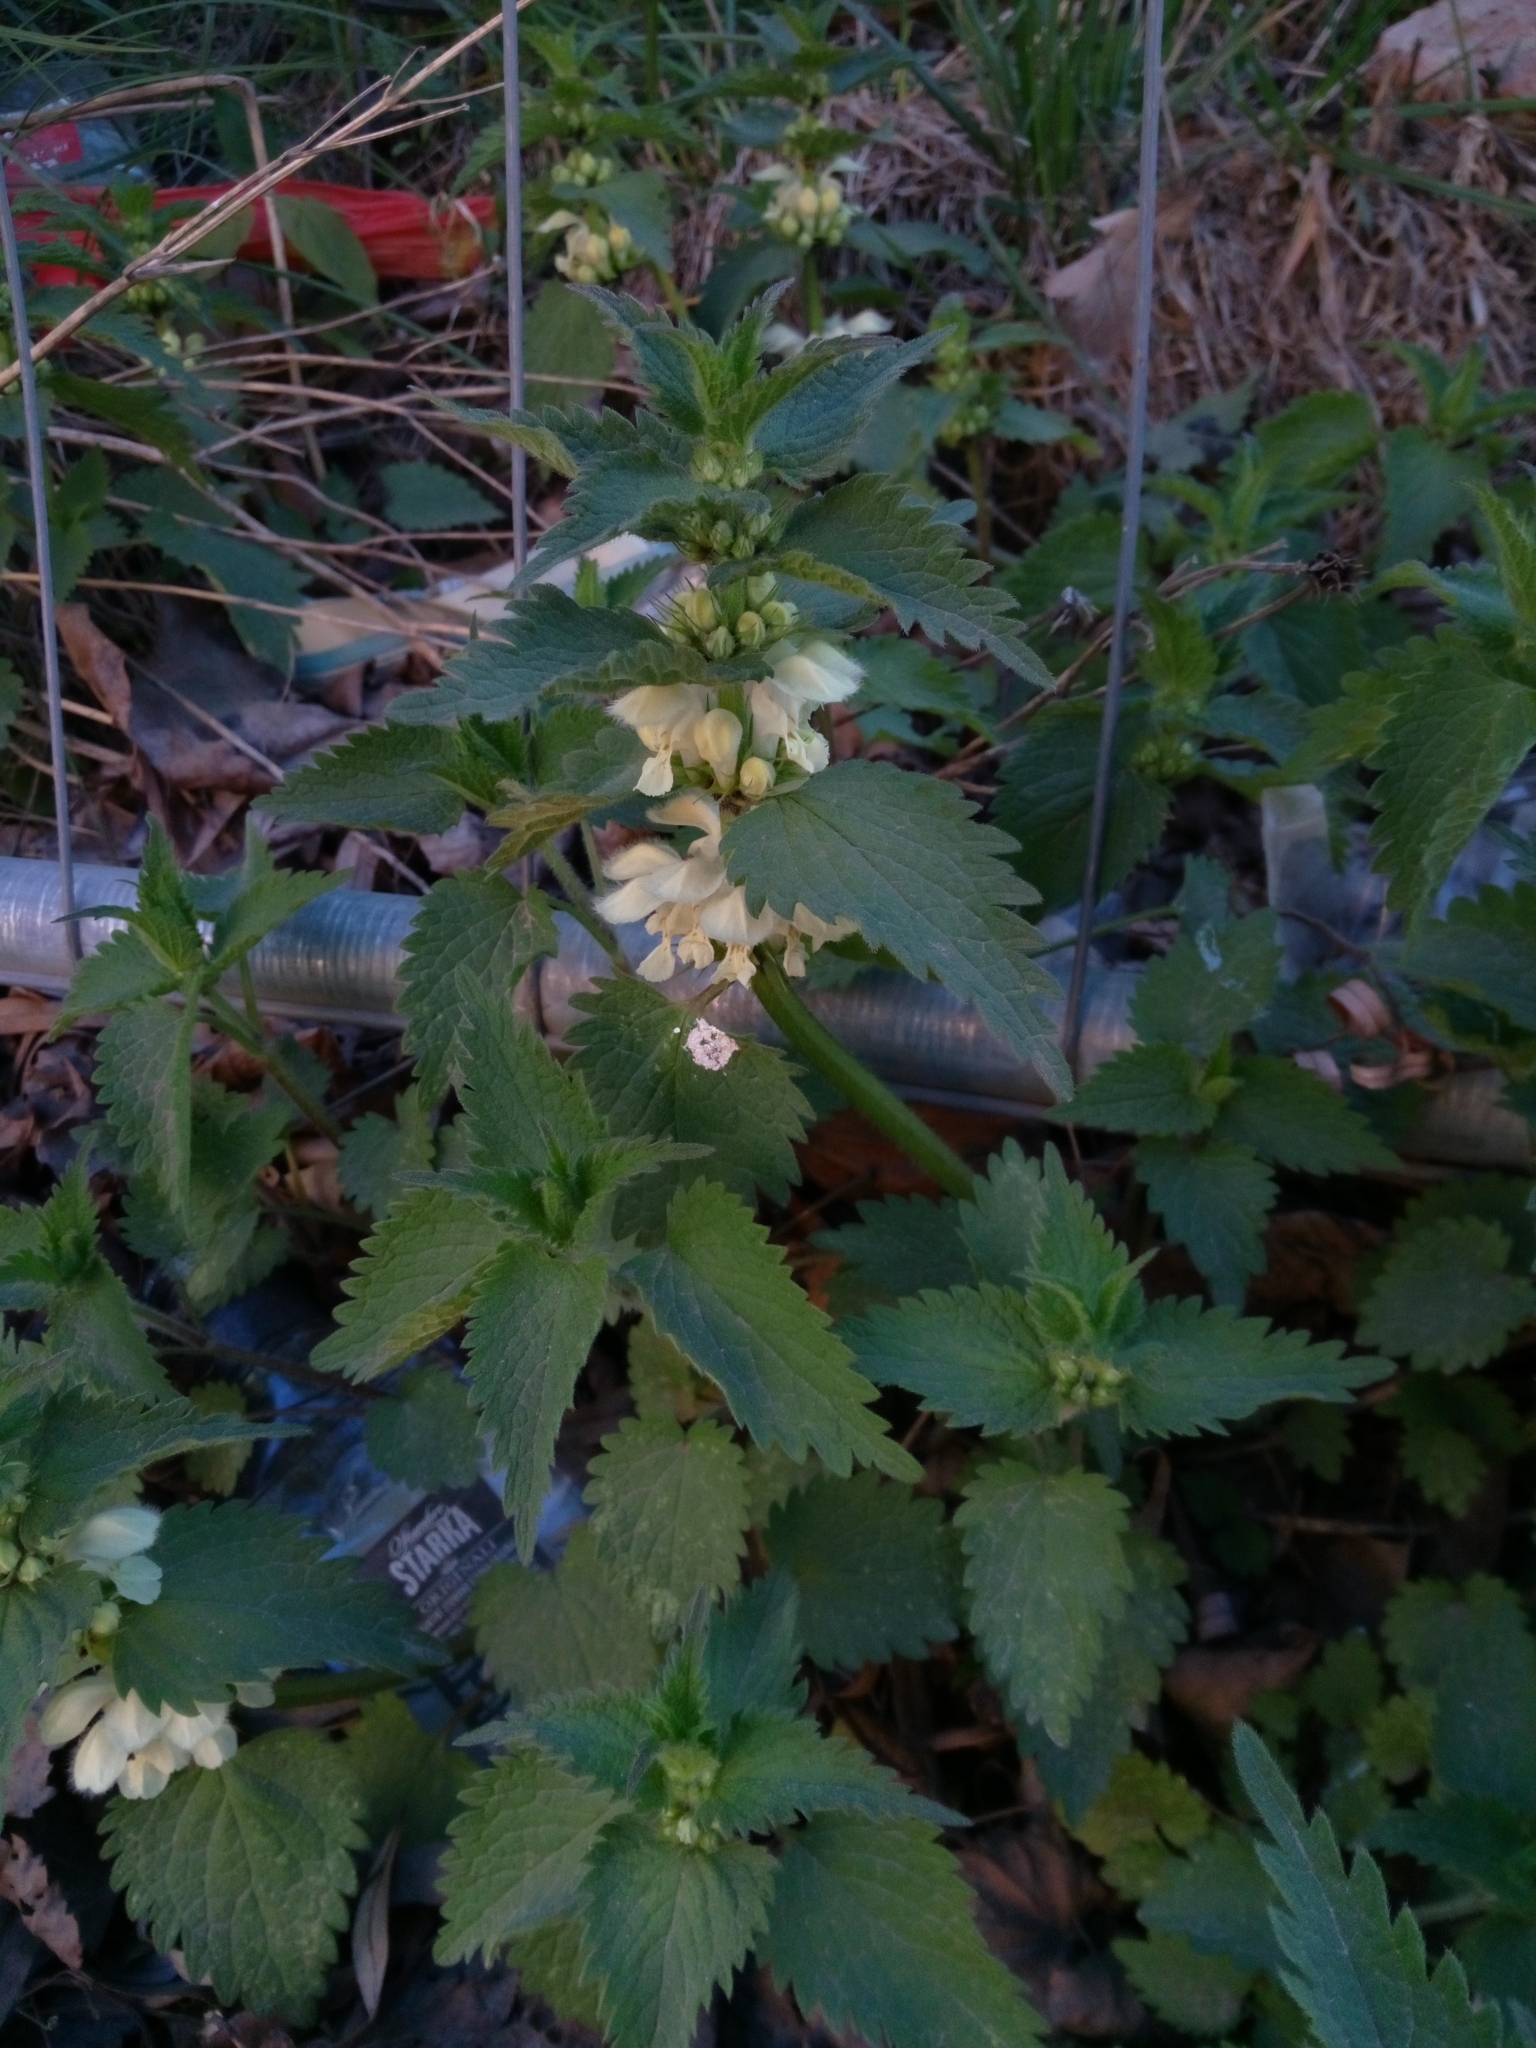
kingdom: Plantae
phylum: Tracheophyta
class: Magnoliopsida
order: Lamiales
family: Lamiaceae
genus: Lamium
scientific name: Lamium album
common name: White dead-nettle
